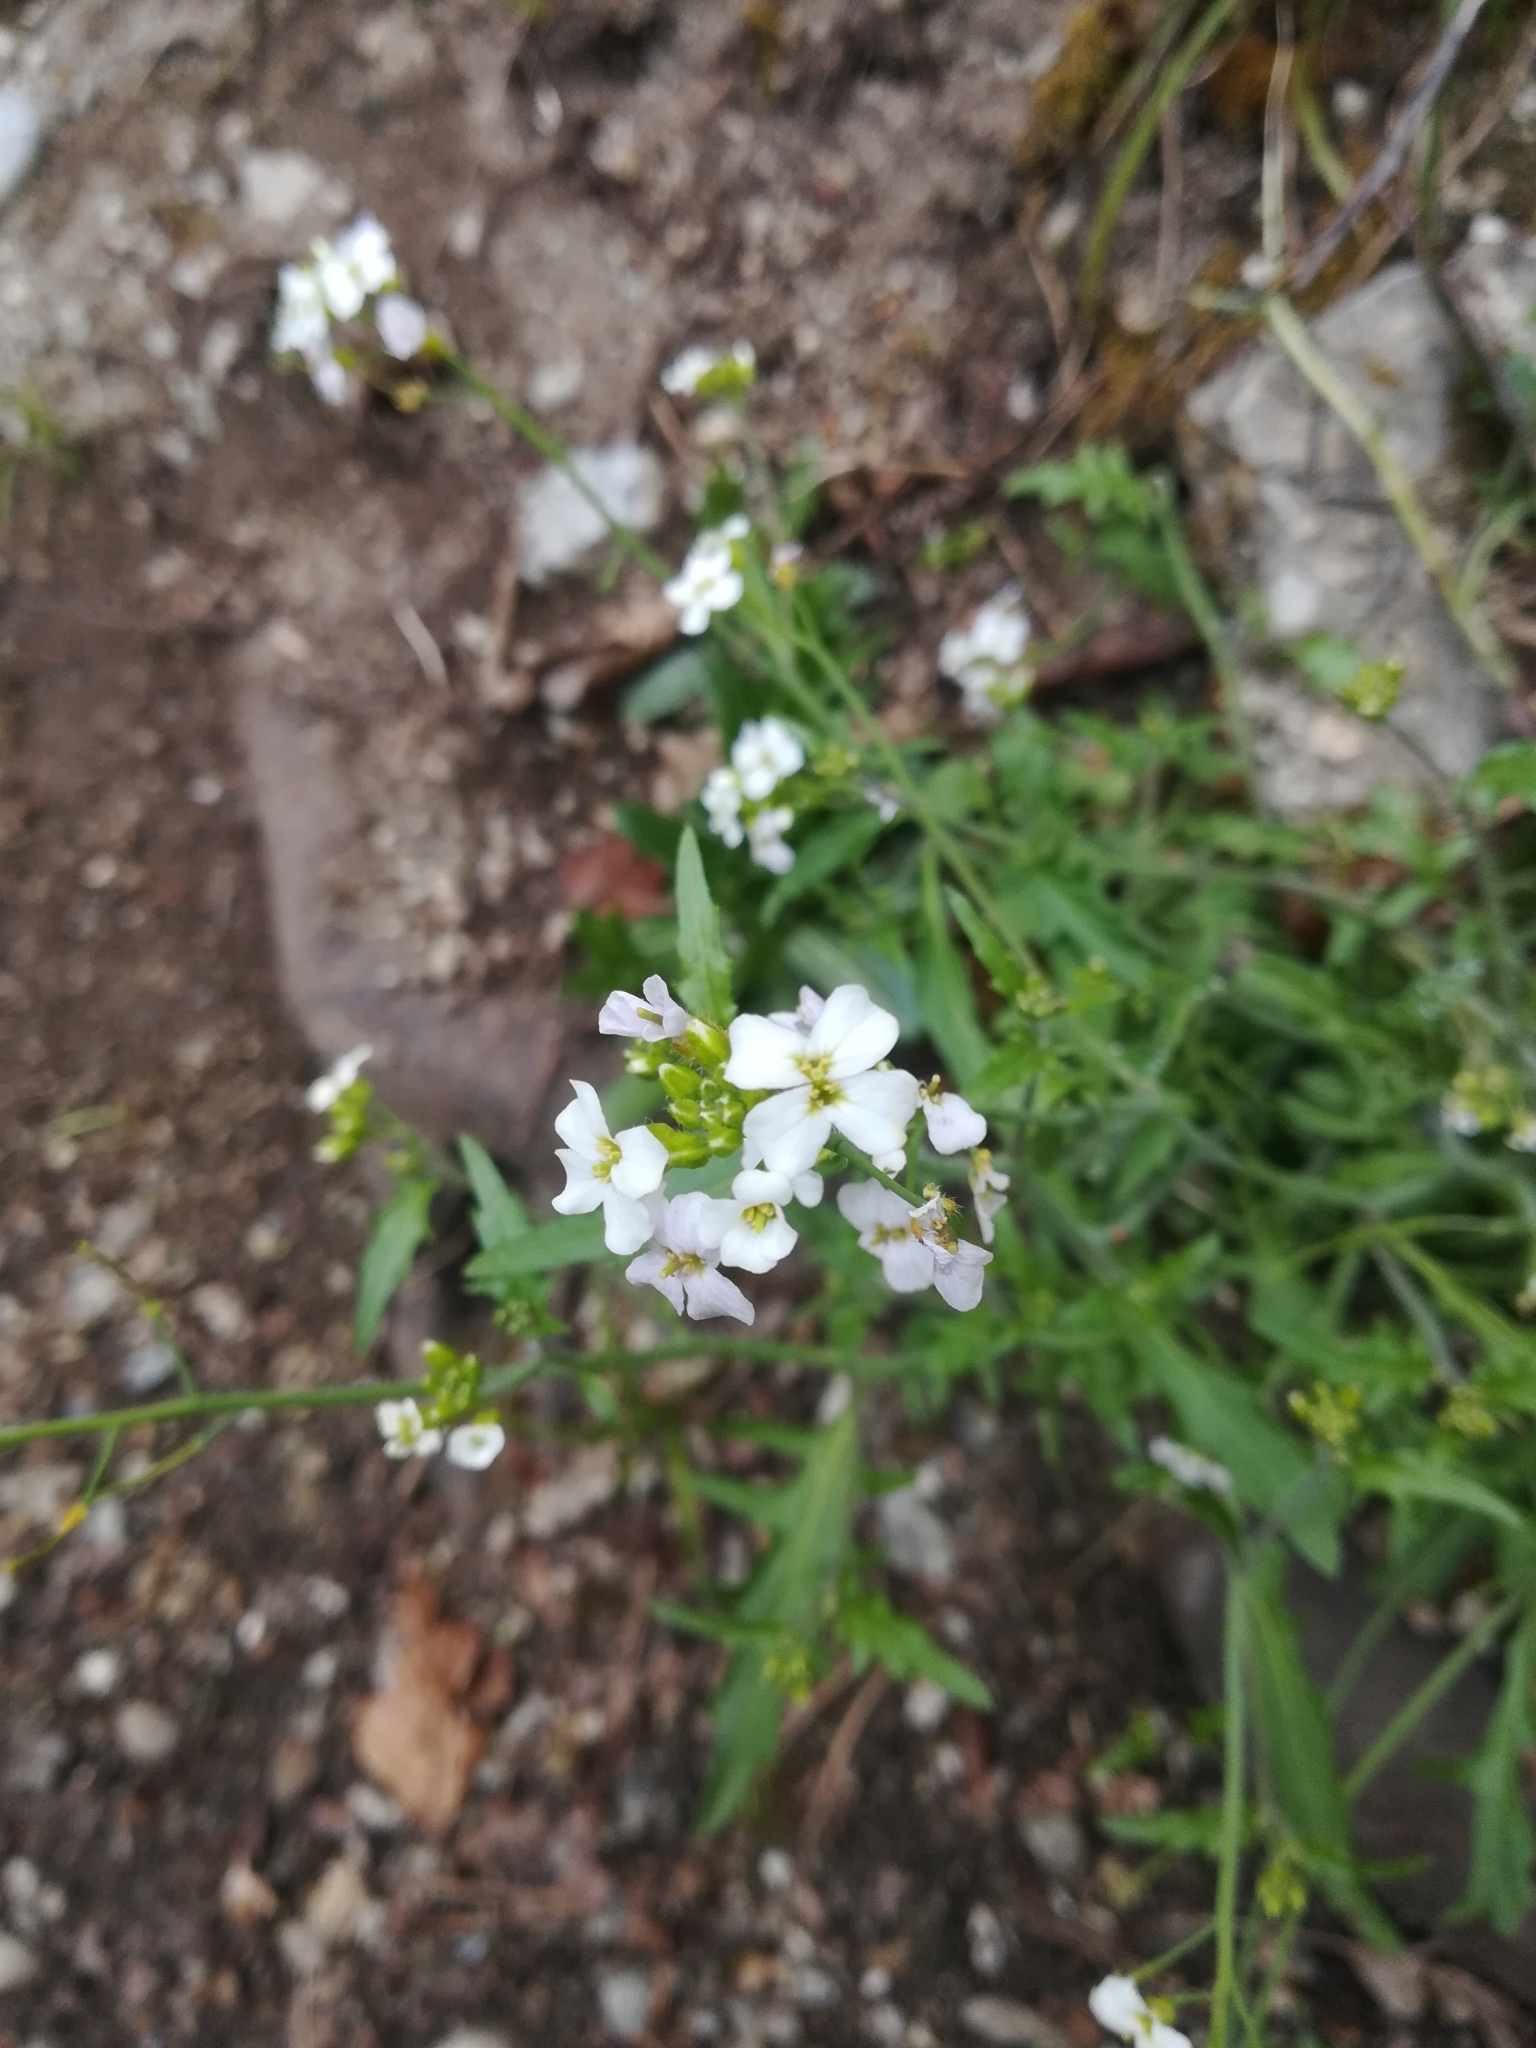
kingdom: Plantae
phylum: Tracheophyta
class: Magnoliopsida
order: Brassicales
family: Brassicaceae
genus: Arabidopsis
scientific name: Arabidopsis arenosa
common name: Sand rock-cress
